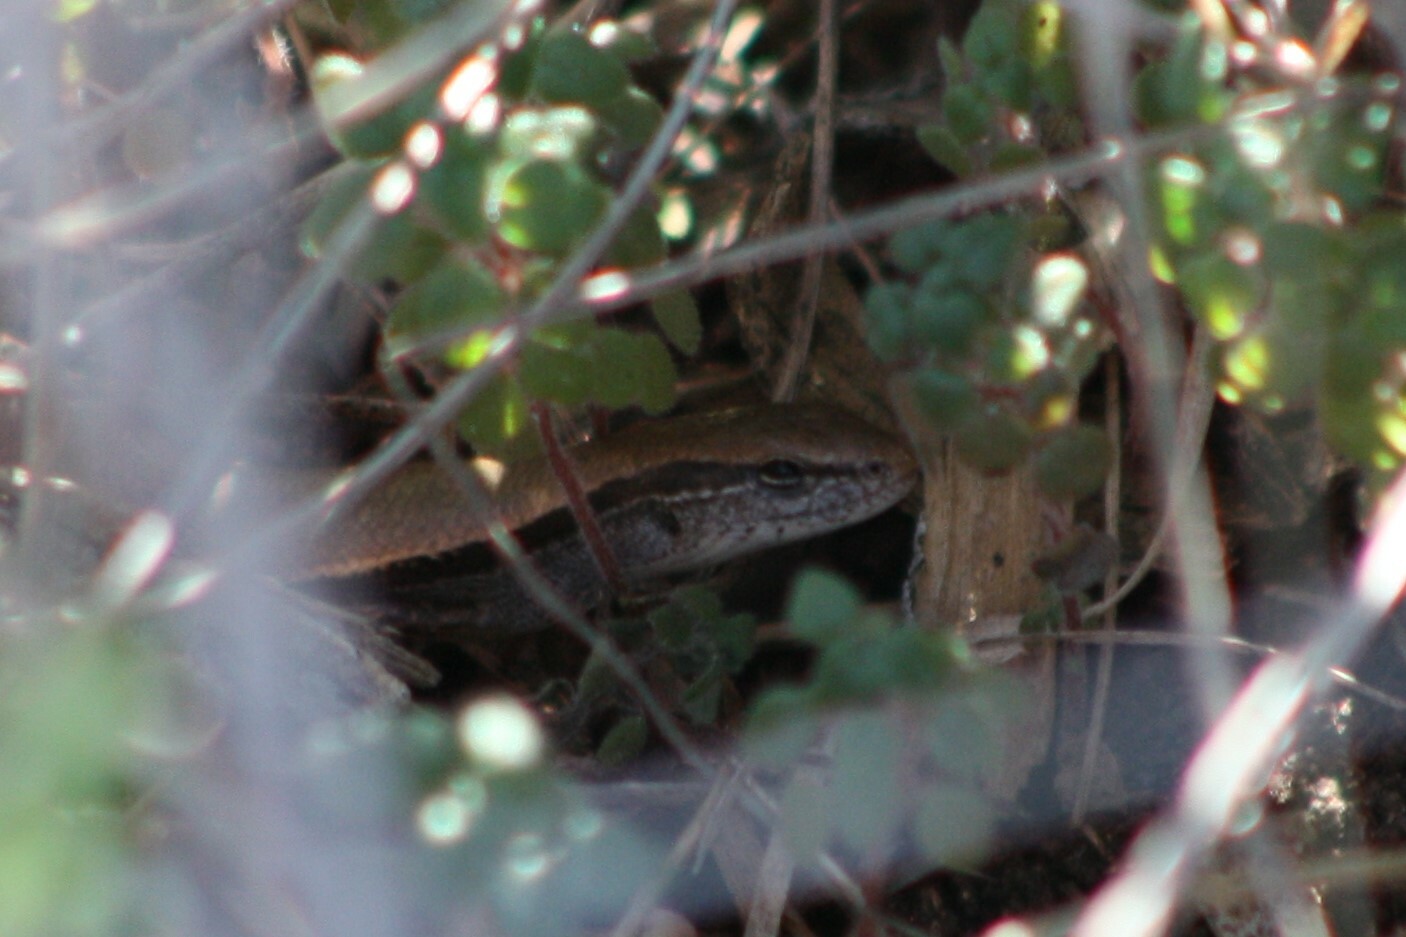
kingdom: Animalia
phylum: Chordata
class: Squamata
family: Scincidae
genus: Scincella
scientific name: Scincella lateralis
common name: Ground skink
